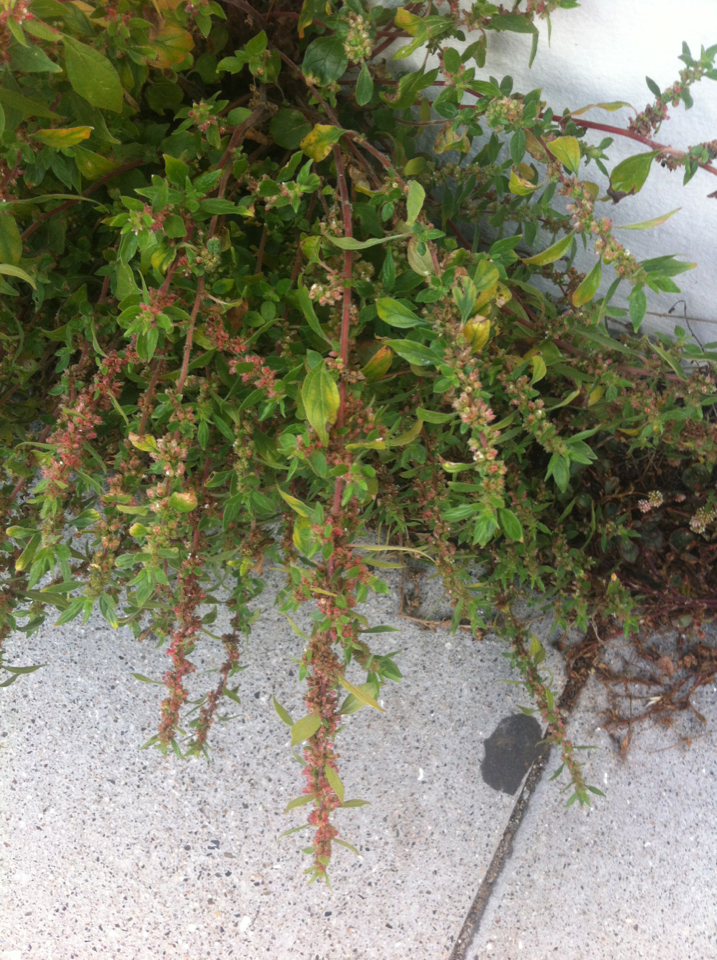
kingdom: Plantae
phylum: Tracheophyta
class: Magnoliopsida
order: Rosales
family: Urticaceae
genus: Parietaria
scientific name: Parietaria judaica
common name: Pellitory-of-the-wall
